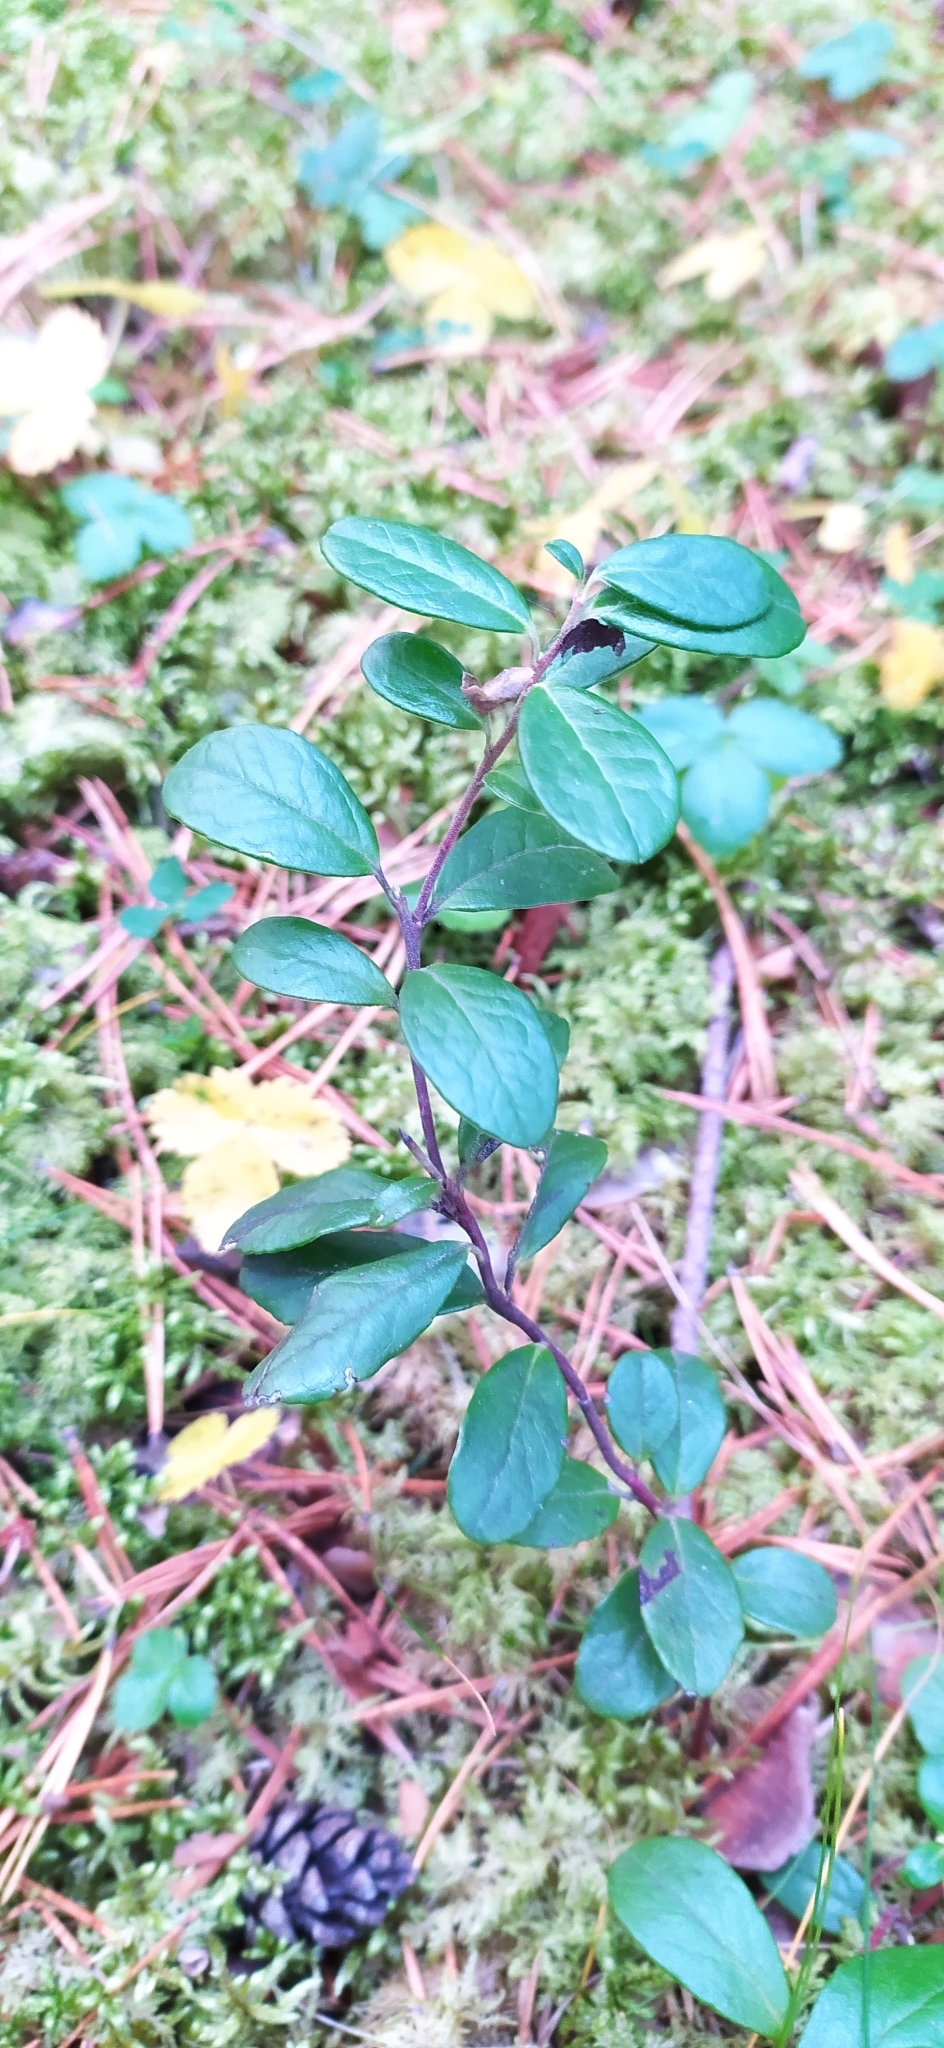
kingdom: Plantae
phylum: Tracheophyta
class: Magnoliopsida
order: Ericales
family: Ericaceae
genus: Vaccinium
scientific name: Vaccinium vitis-idaea
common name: Cowberry
